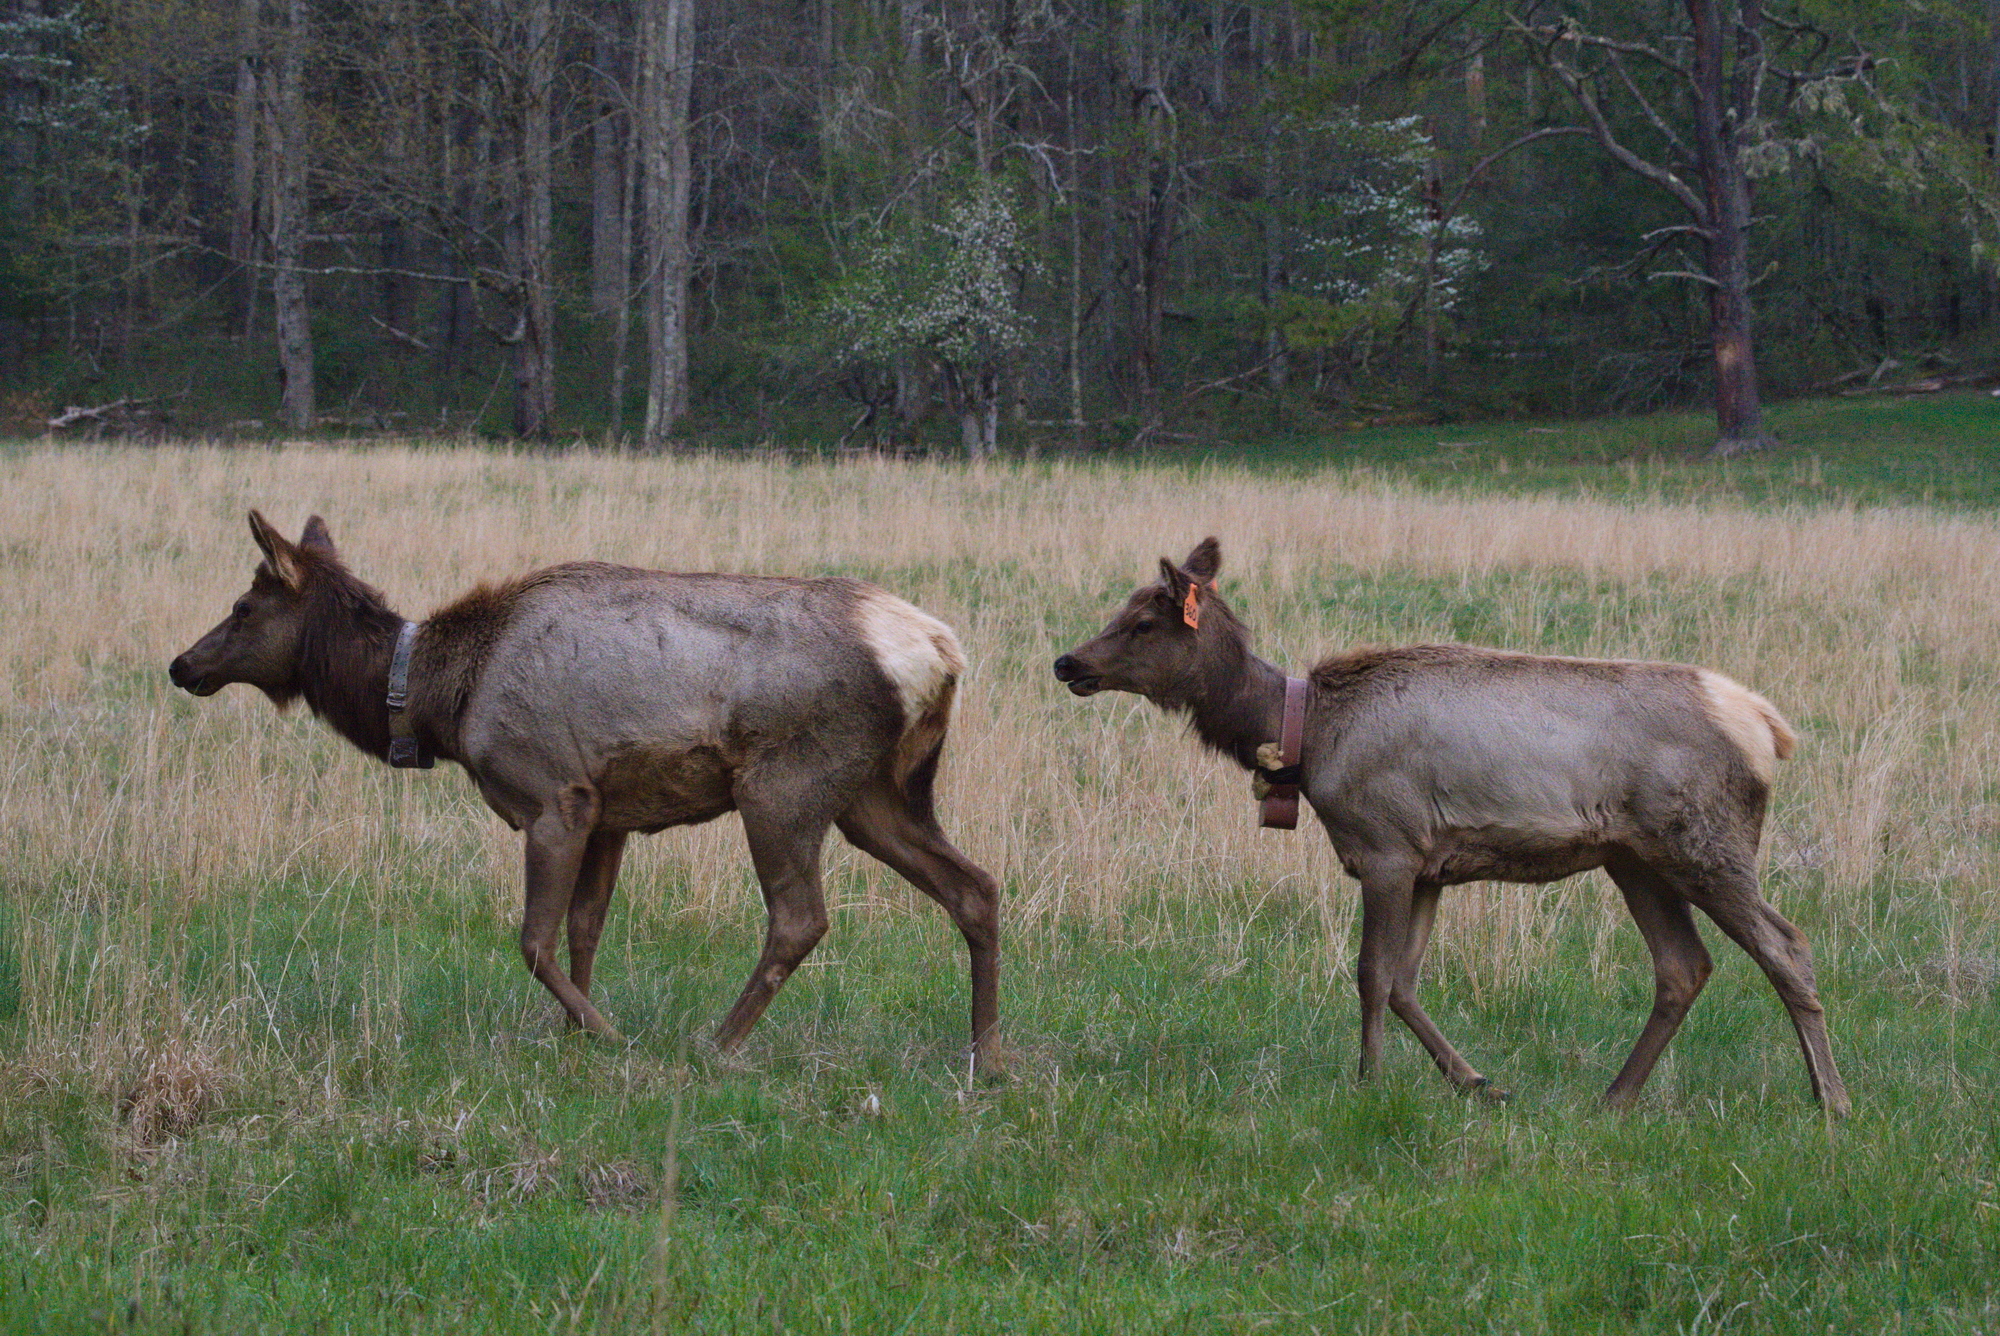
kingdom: Animalia
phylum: Chordata
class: Mammalia
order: Artiodactyla
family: Cervidae
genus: Cervus
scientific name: Cervus elaphus
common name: Red deer
